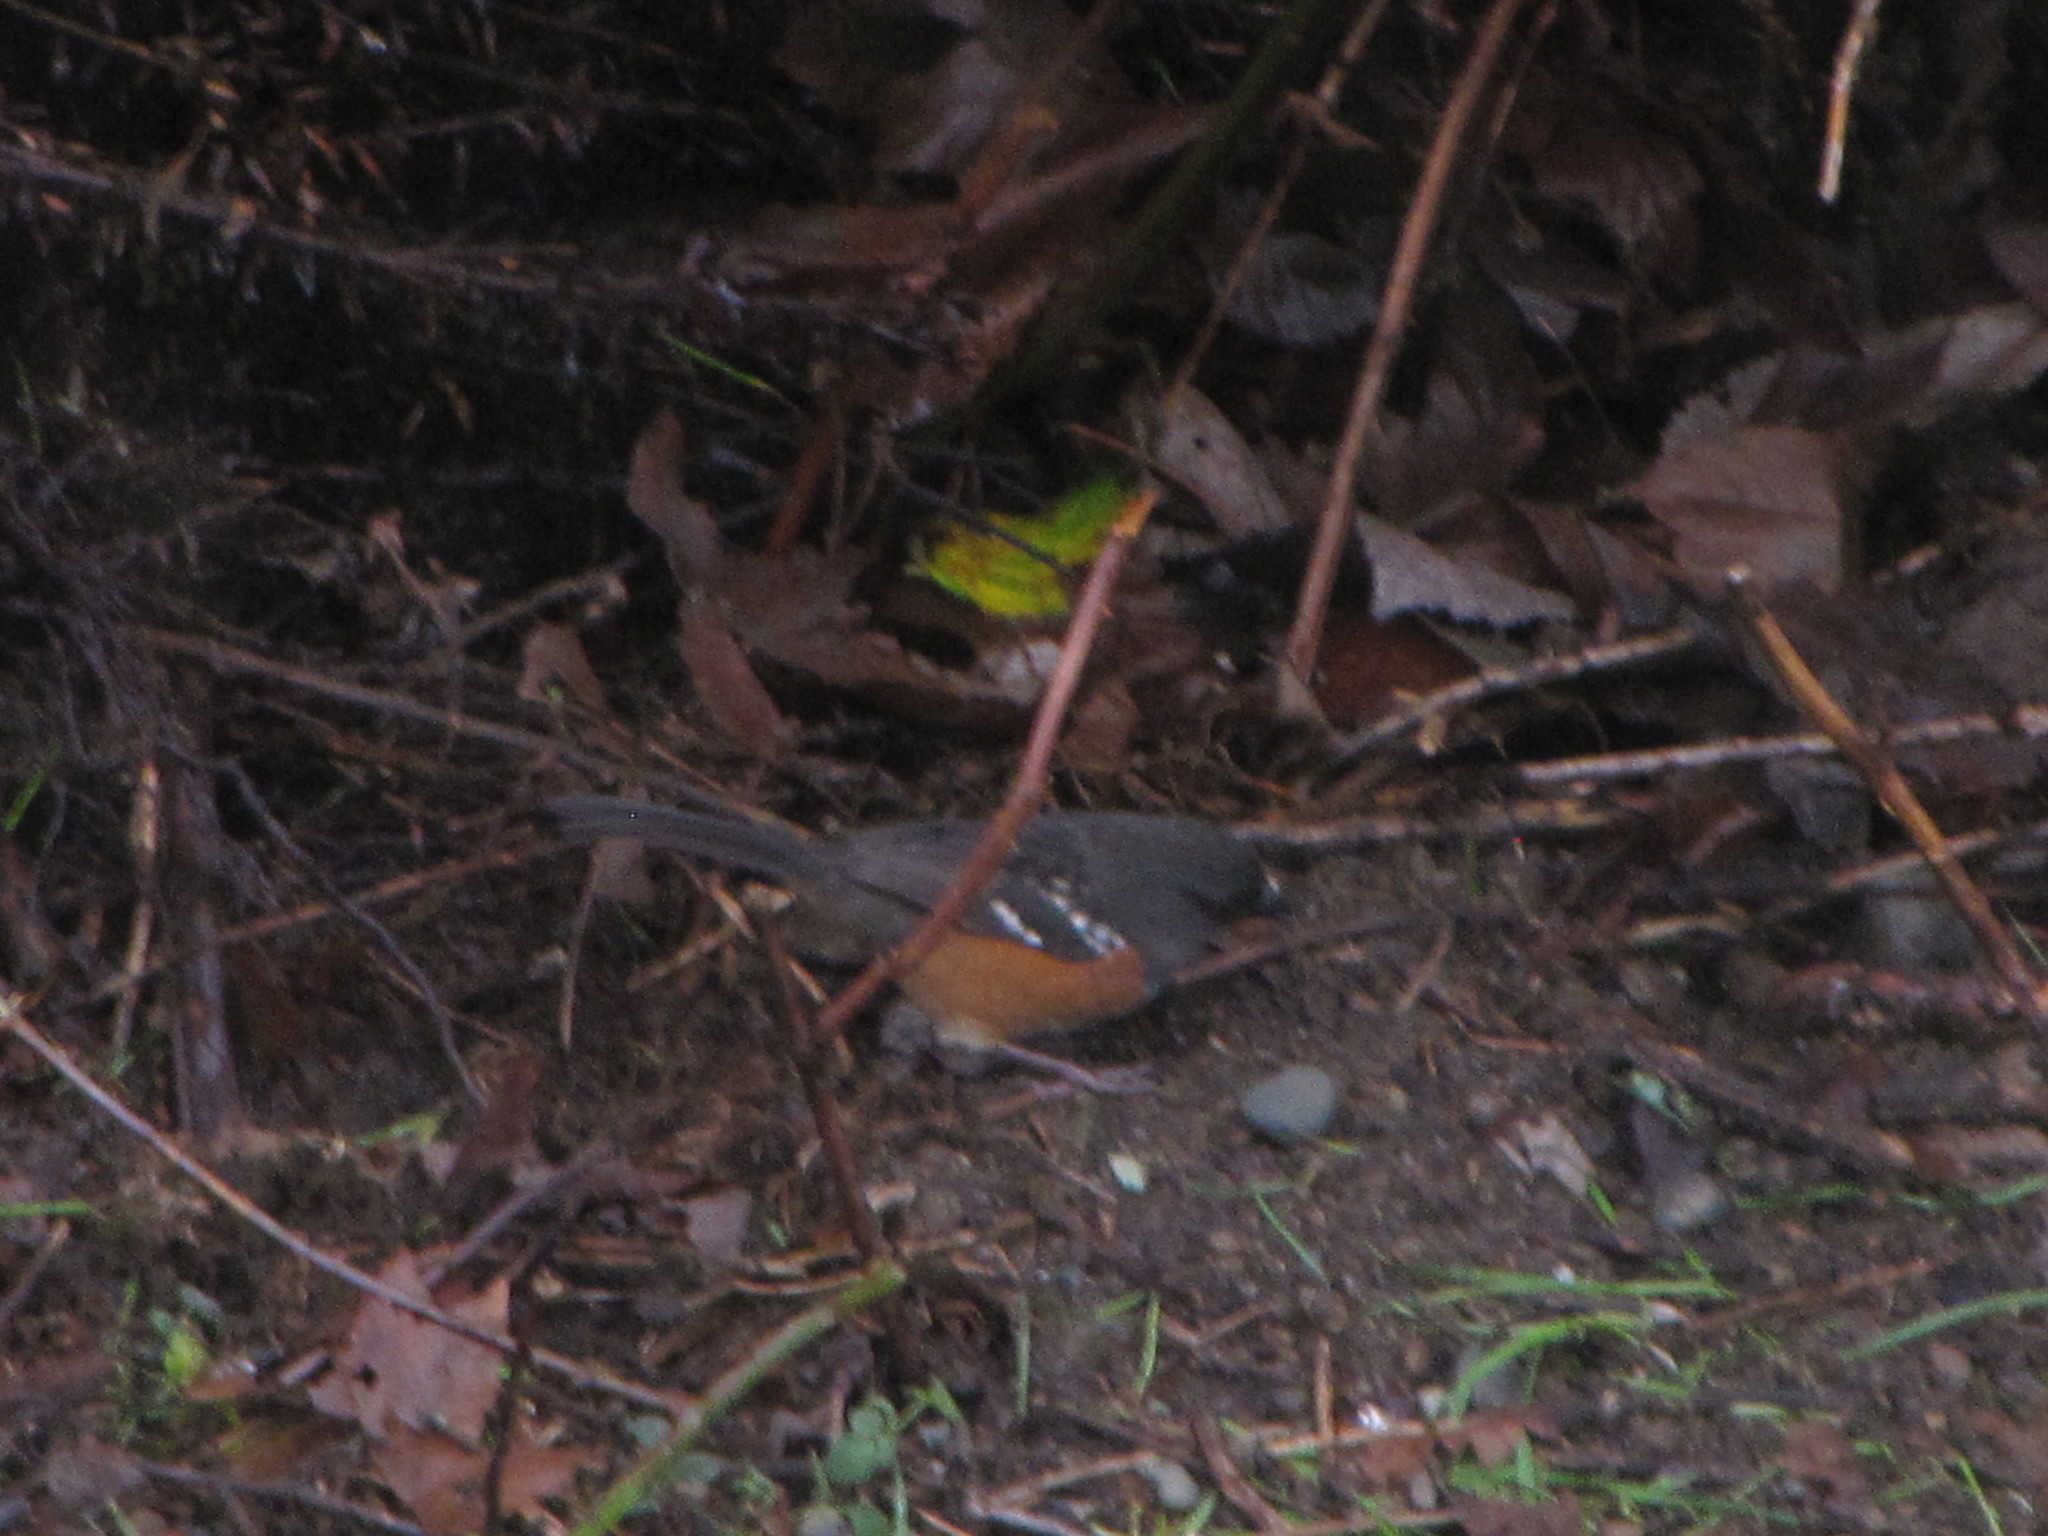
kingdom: Animalia
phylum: Chordata
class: Aves
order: Passeriformes
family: Passerellidae
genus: Pipilo
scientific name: Pipilo maculatus
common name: Spotted towhee
